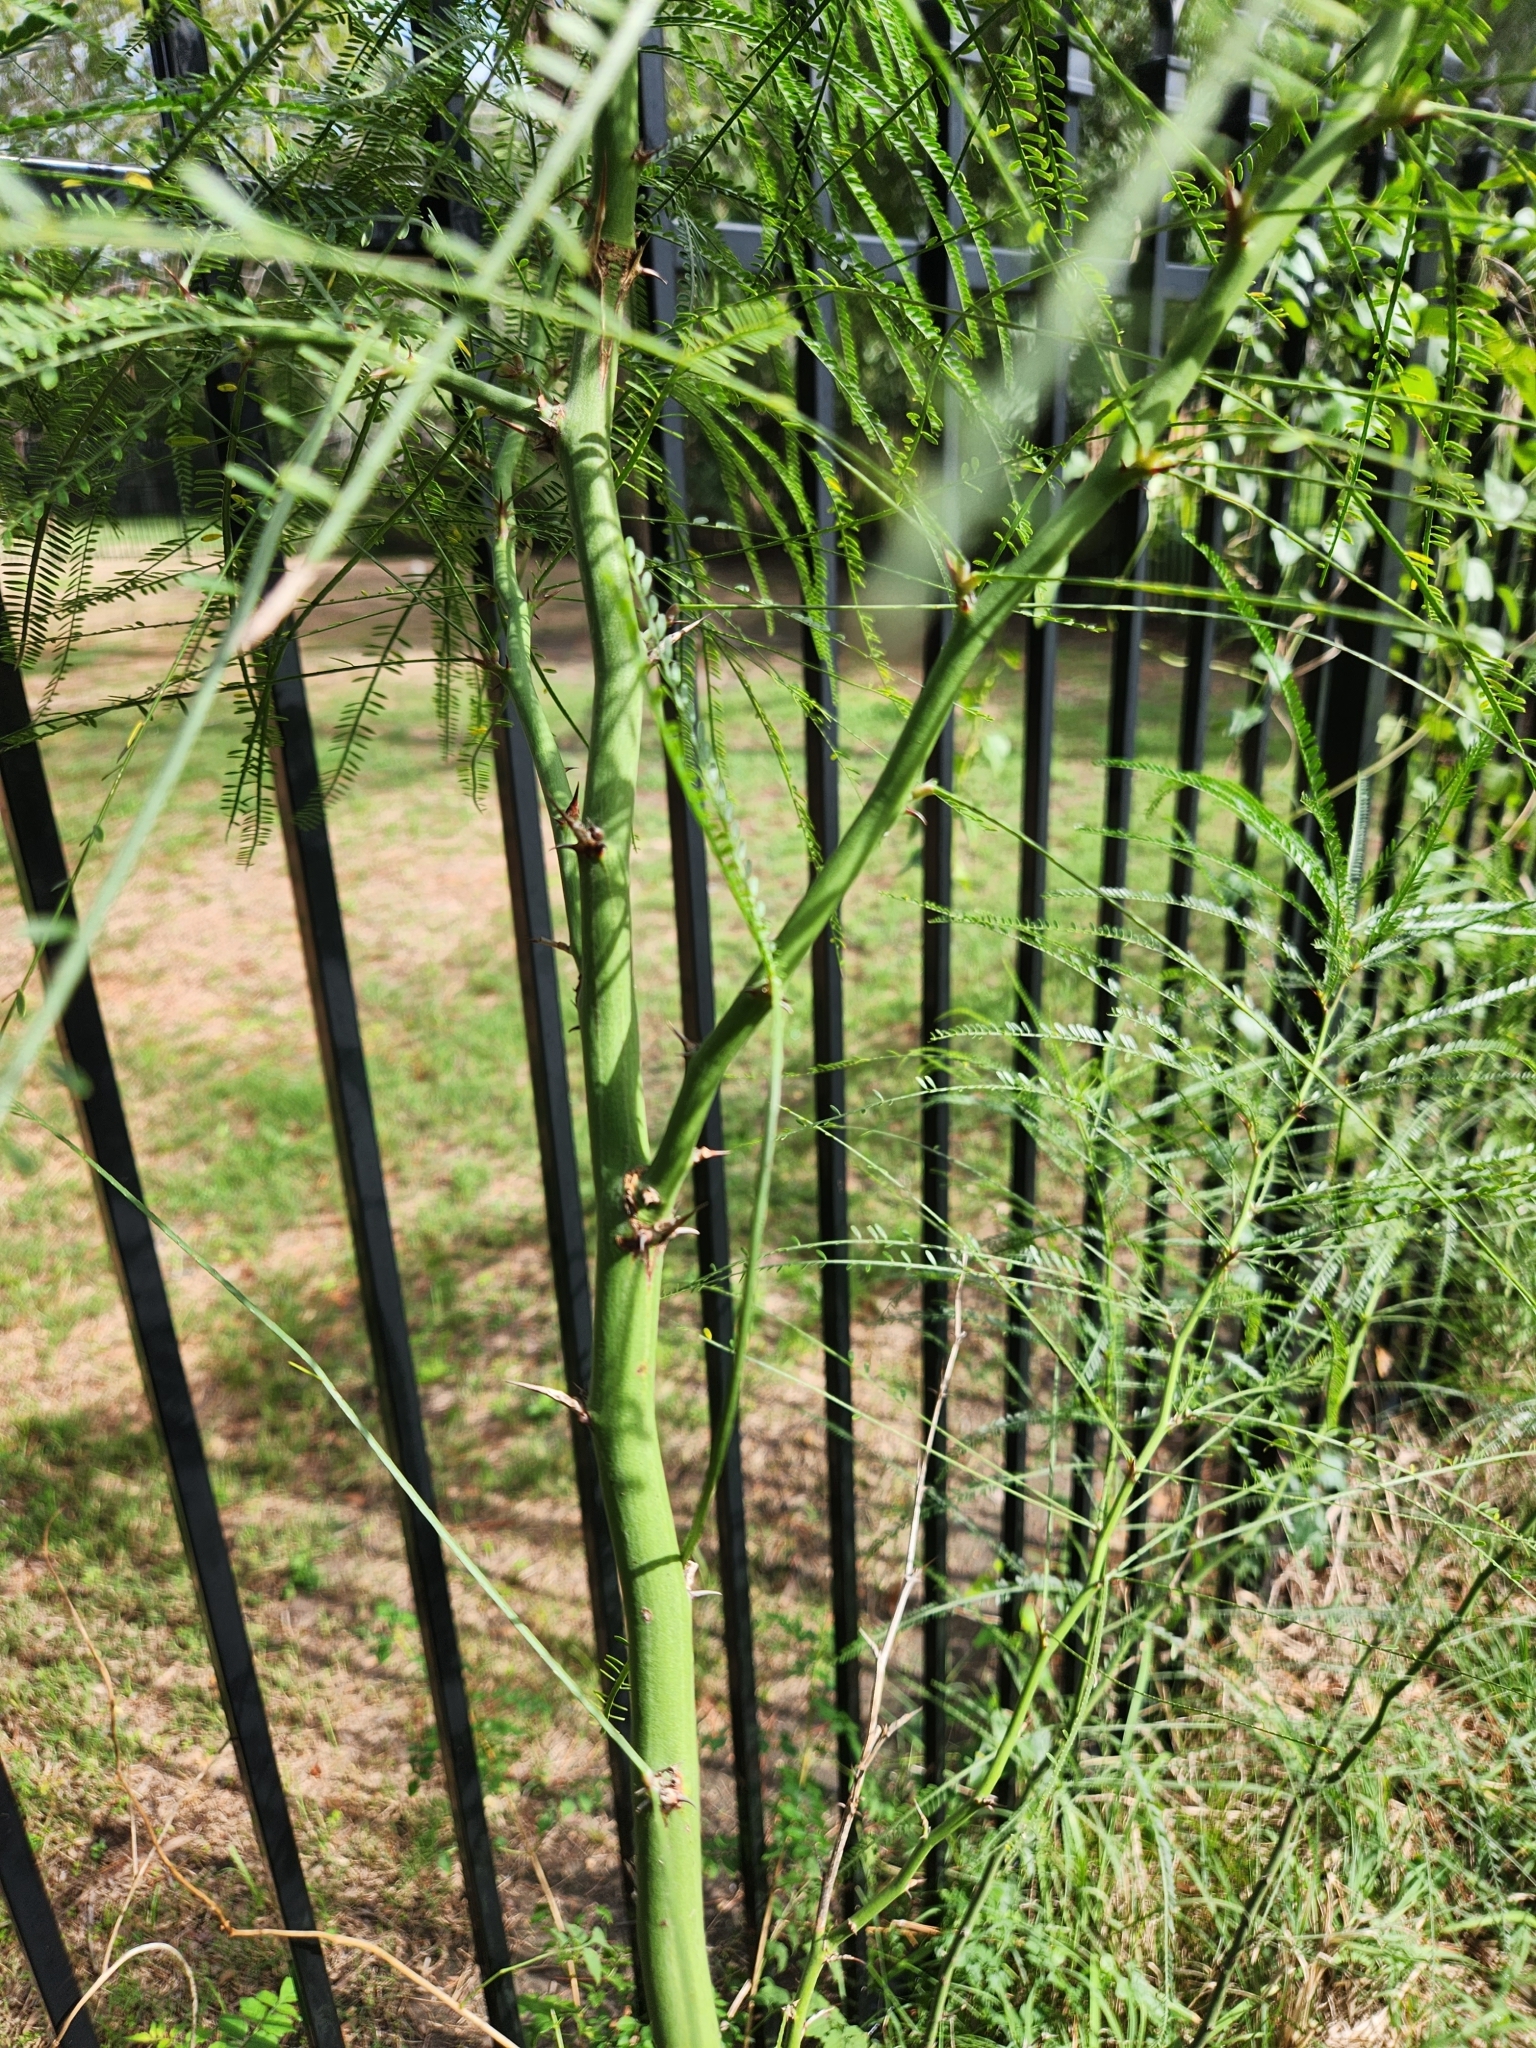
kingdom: Plantae
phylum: Tracheophyta
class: Magnoliopsida
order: Fabales
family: Fabaceae
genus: Parkinsonia
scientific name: Parkinsonia aculeata
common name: Jerusalem thorn
